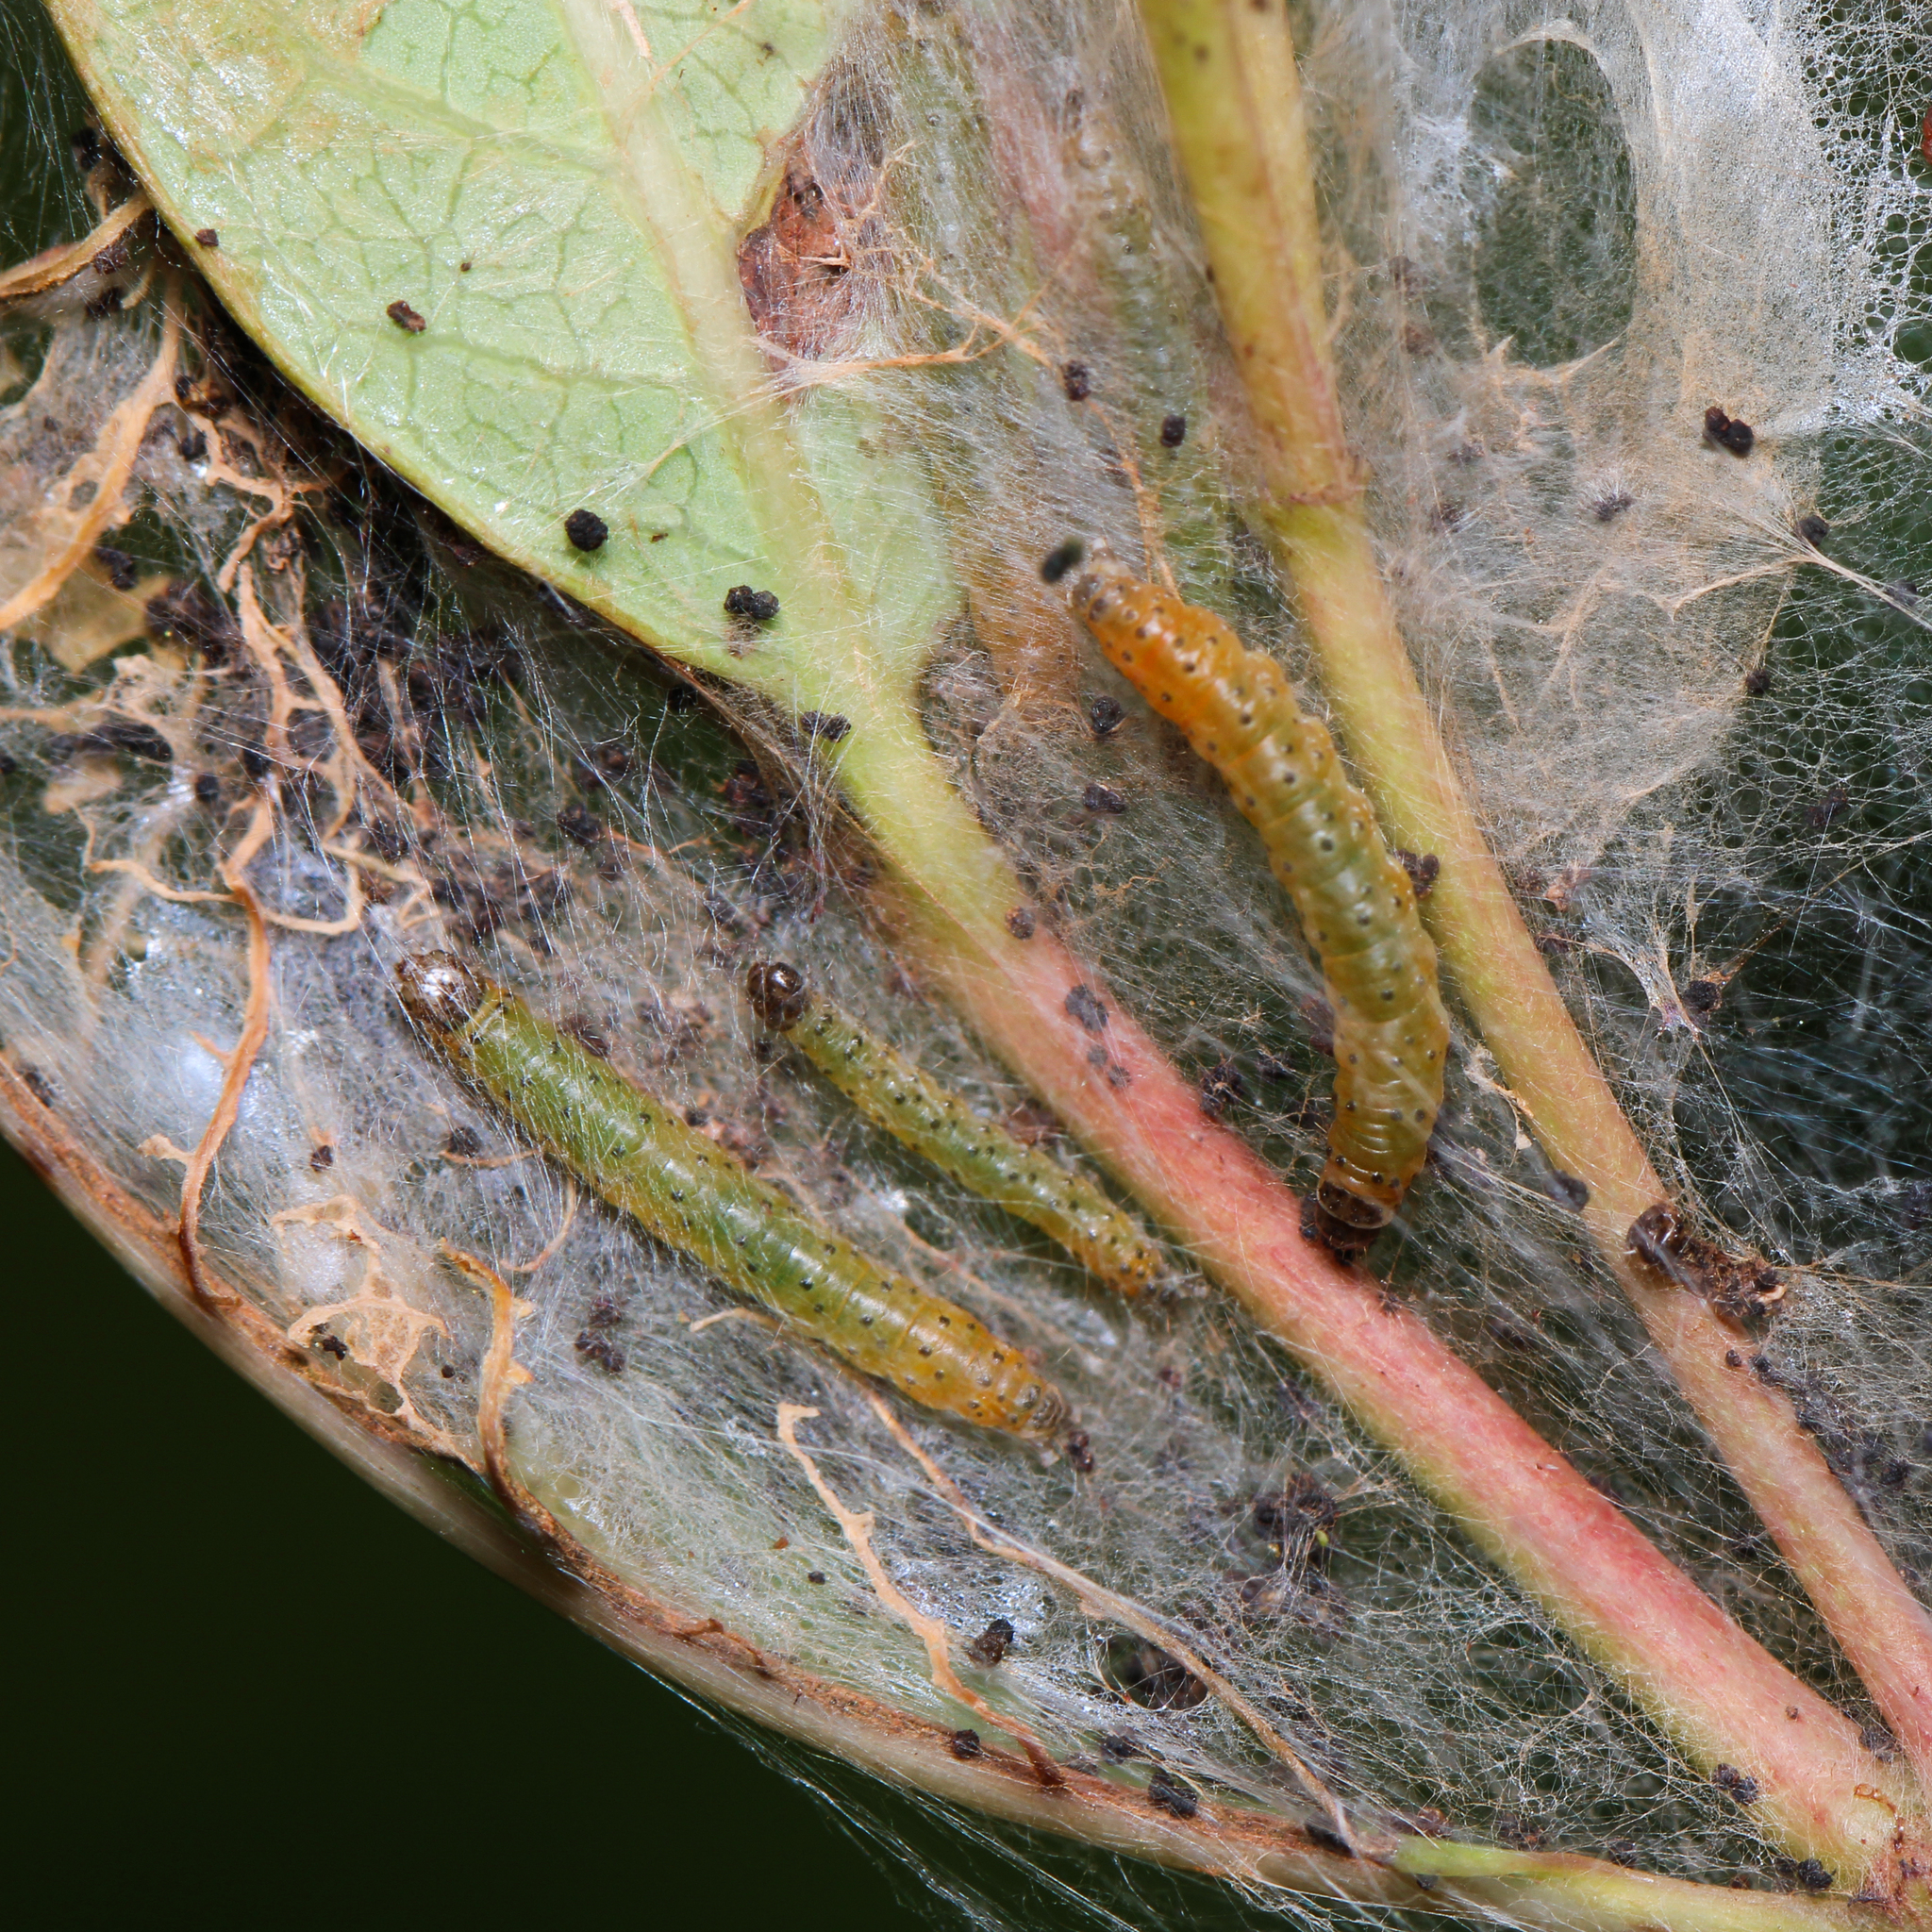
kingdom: Animalia
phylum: Arthropoda
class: Insecta
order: Lepidoptera
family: Crambidae
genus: Saucrobotys
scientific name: Saucrobotys futilalis
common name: Dogbane saucrobotys moth
